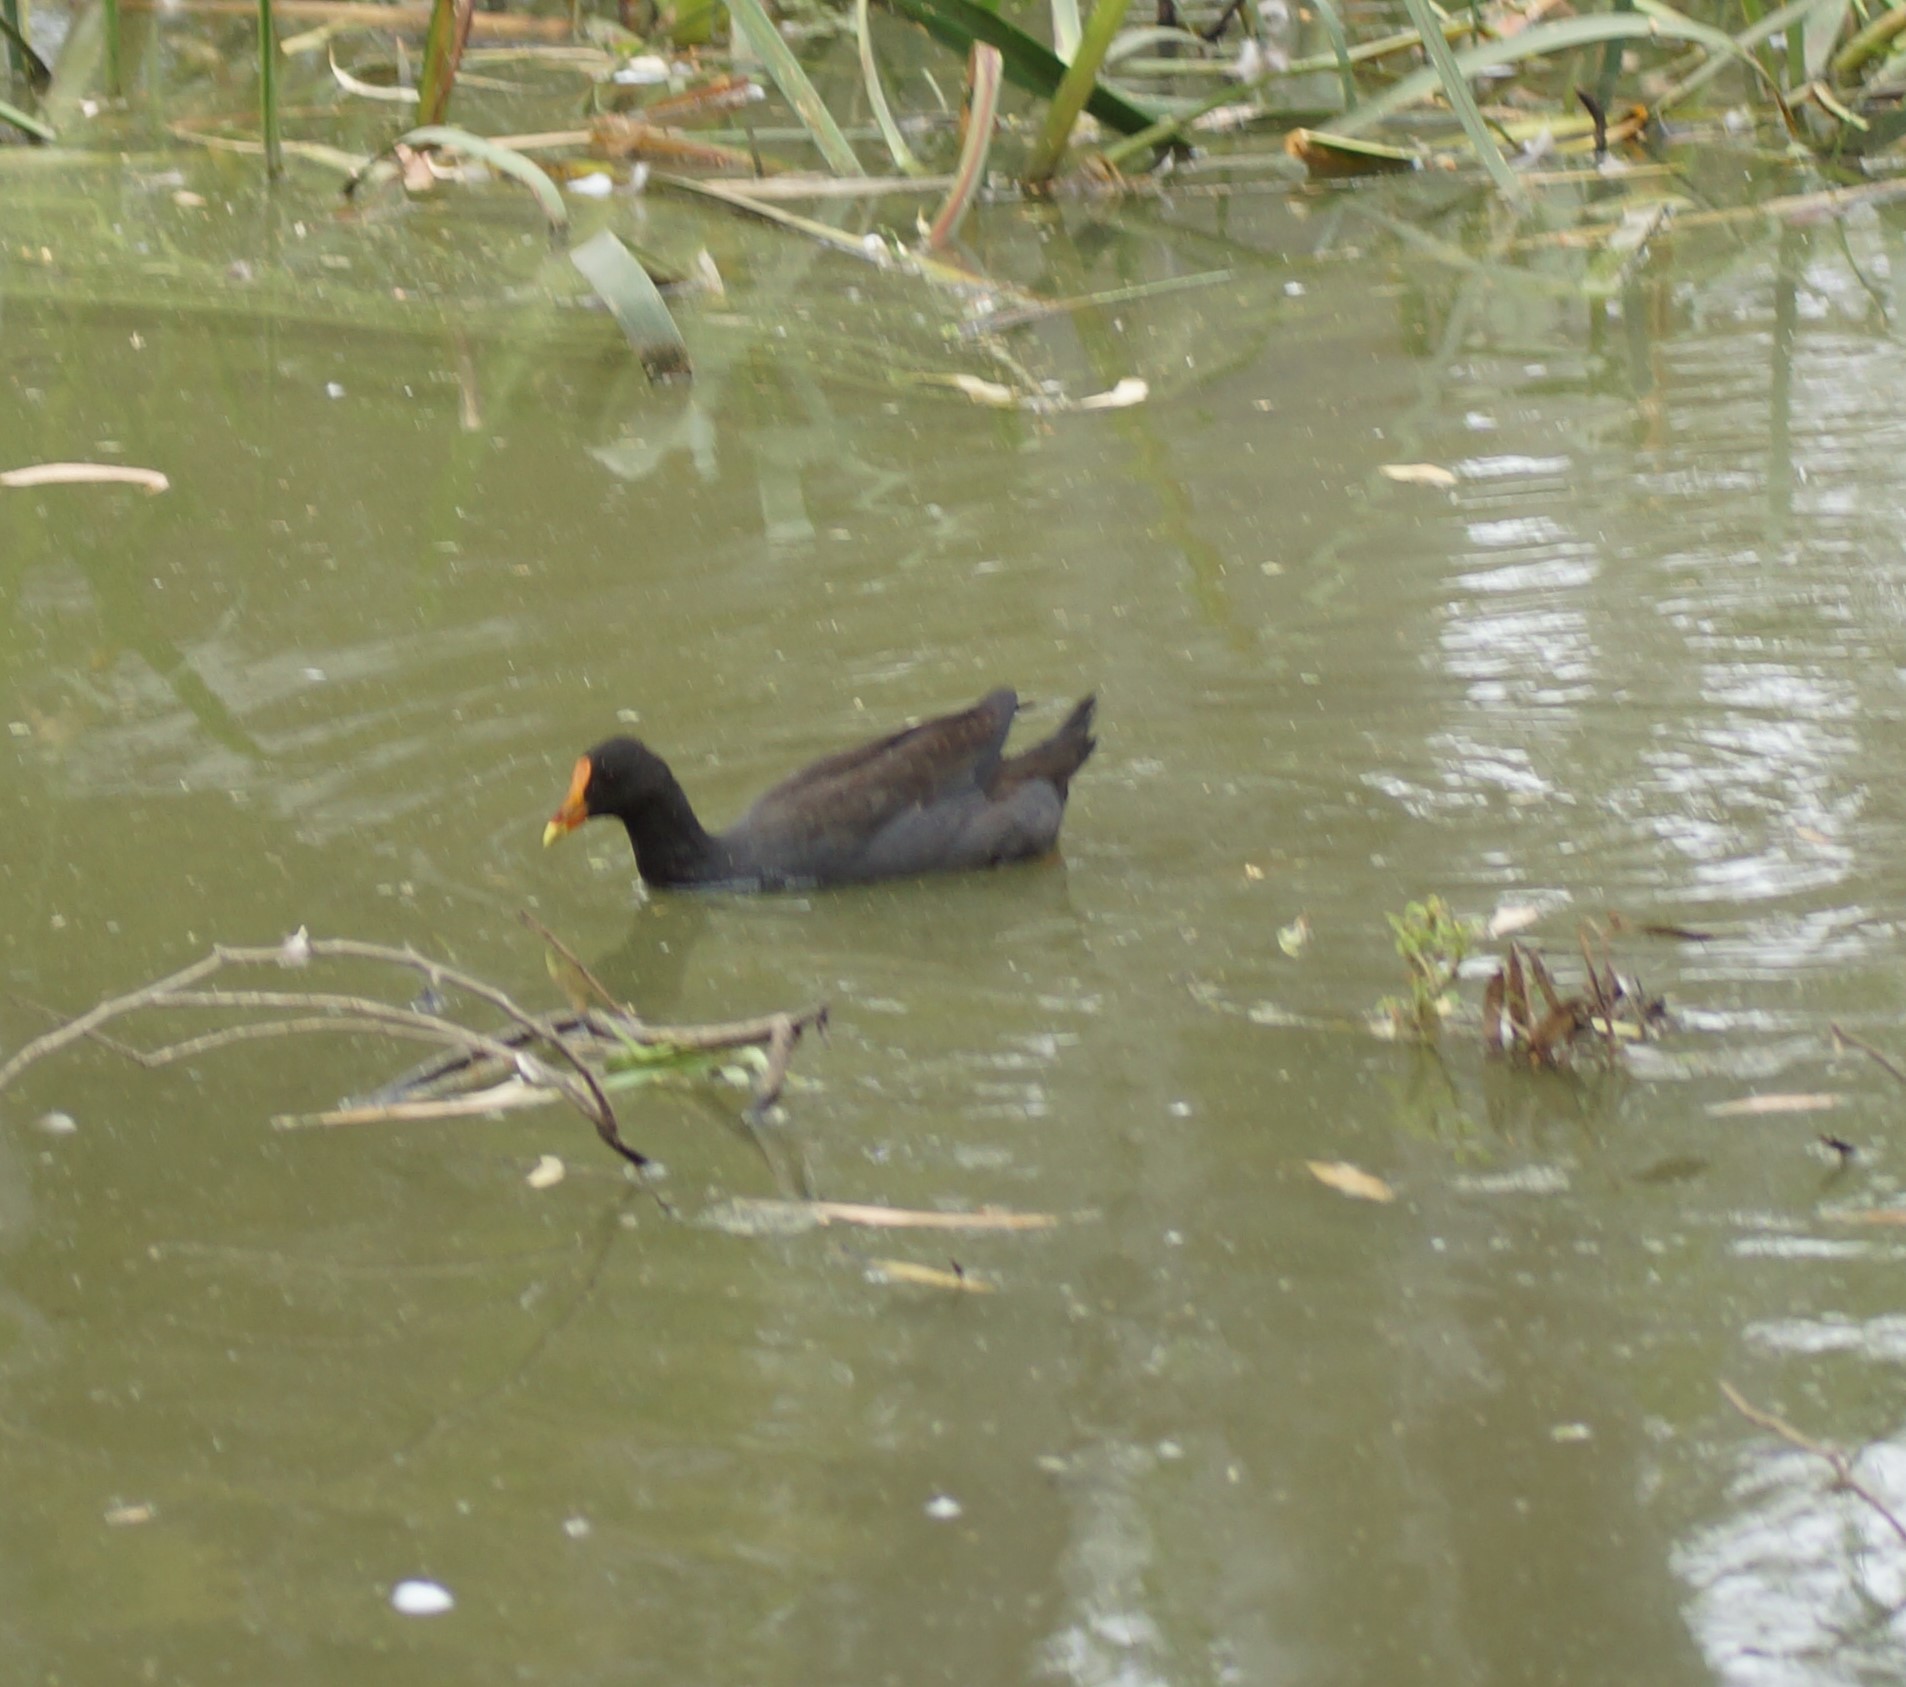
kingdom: Animalia
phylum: Chordata
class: Aves
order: Gruiformes
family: Rallidae
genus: Gallinula
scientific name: Gallinula tenebrosa
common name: Dusky moorhen
